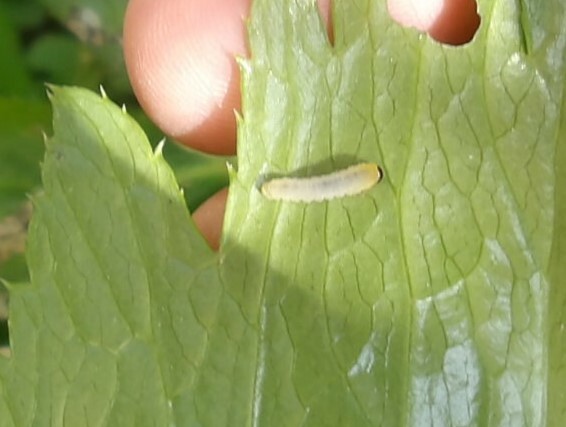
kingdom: Animalia
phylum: Arthropoda
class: Insecta
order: Hymenoptera
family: Tenthredinidae
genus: Monophadnus
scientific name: Monophadnus taegeri
